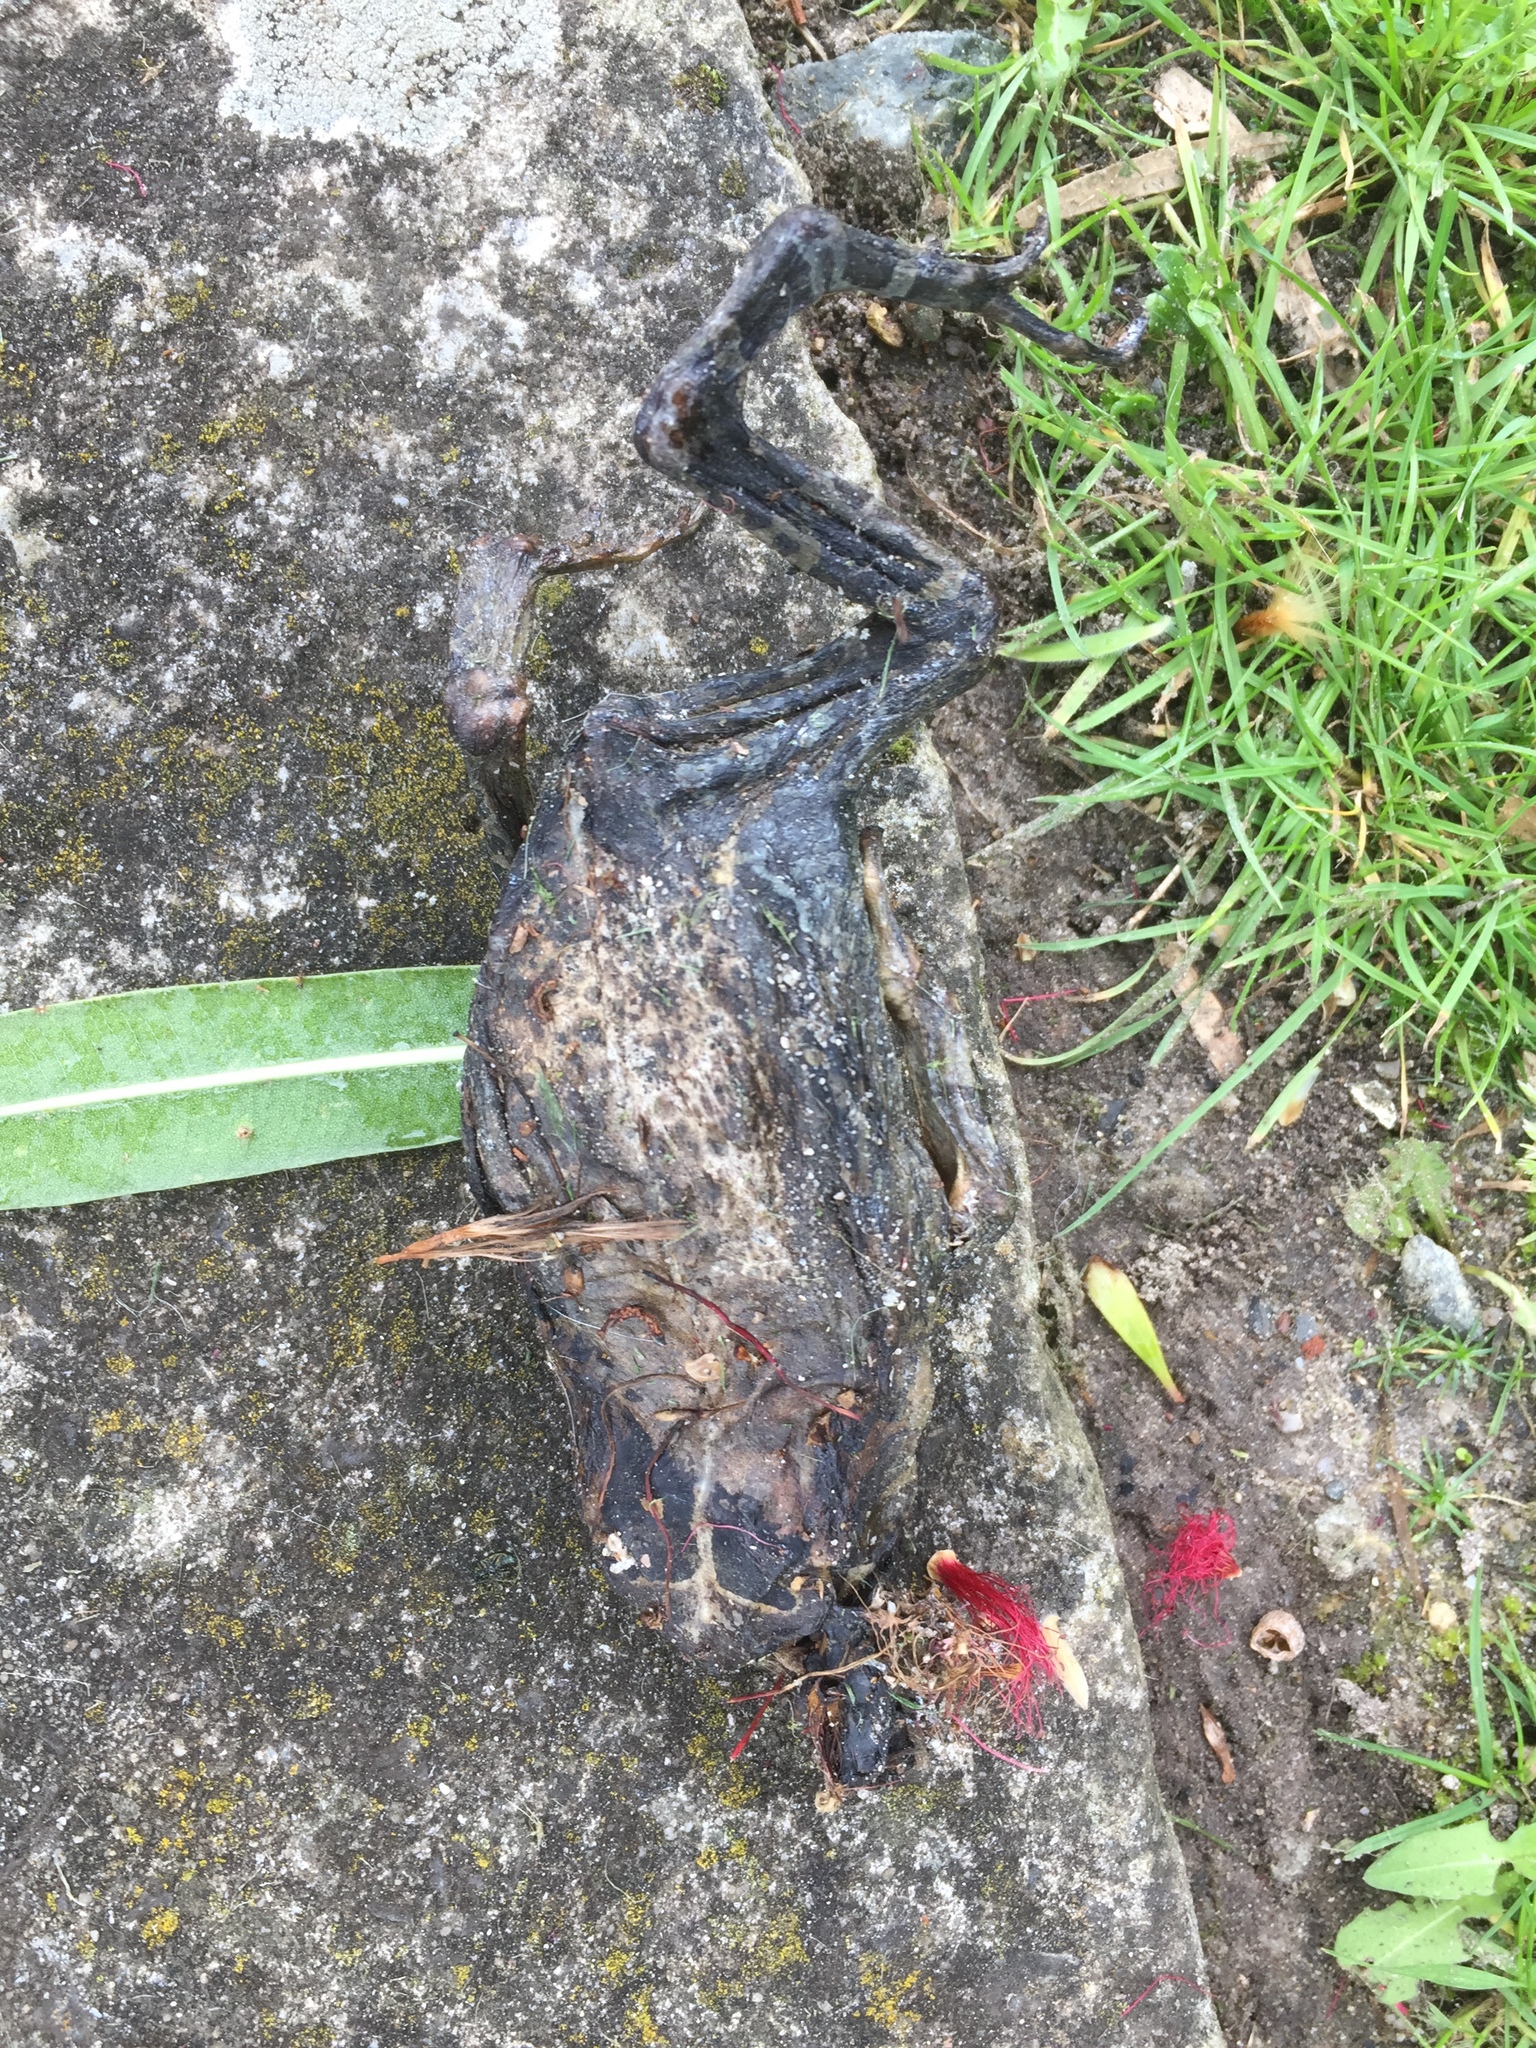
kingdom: Animalia
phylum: Chordata
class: Amphibia
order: Anura
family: Bufonidae
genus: Sclerophrys
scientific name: Sclerophrys pantherina
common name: Panther toad
